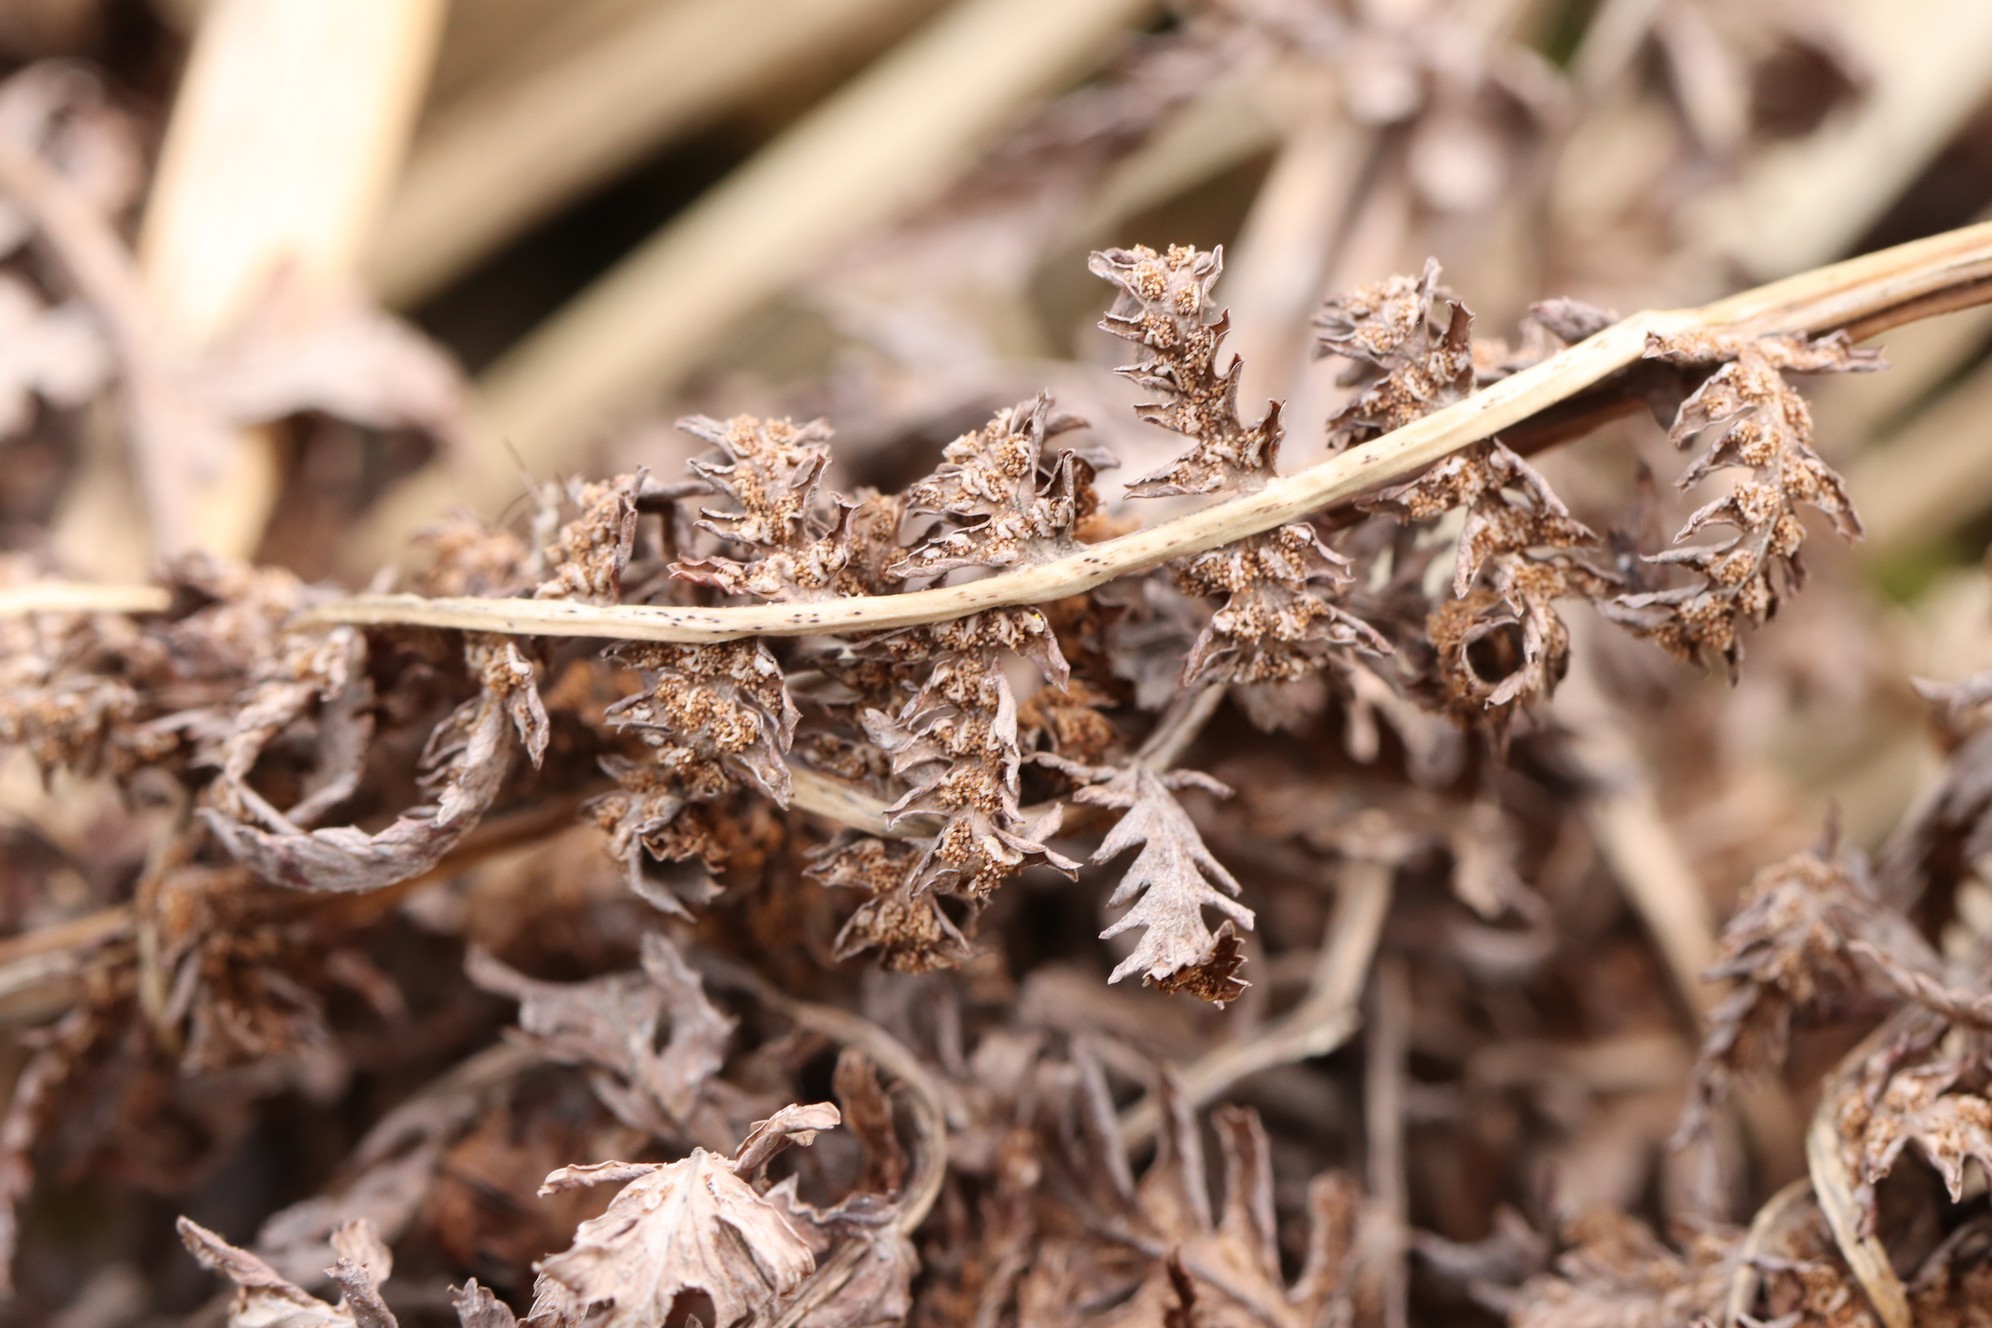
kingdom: Plantae
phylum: Tracheophyta
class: Polypodiopsida
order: Polypodiales
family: Athyriaceae
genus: Athyrium
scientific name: Athyrium filix-femina
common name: Lady fern
